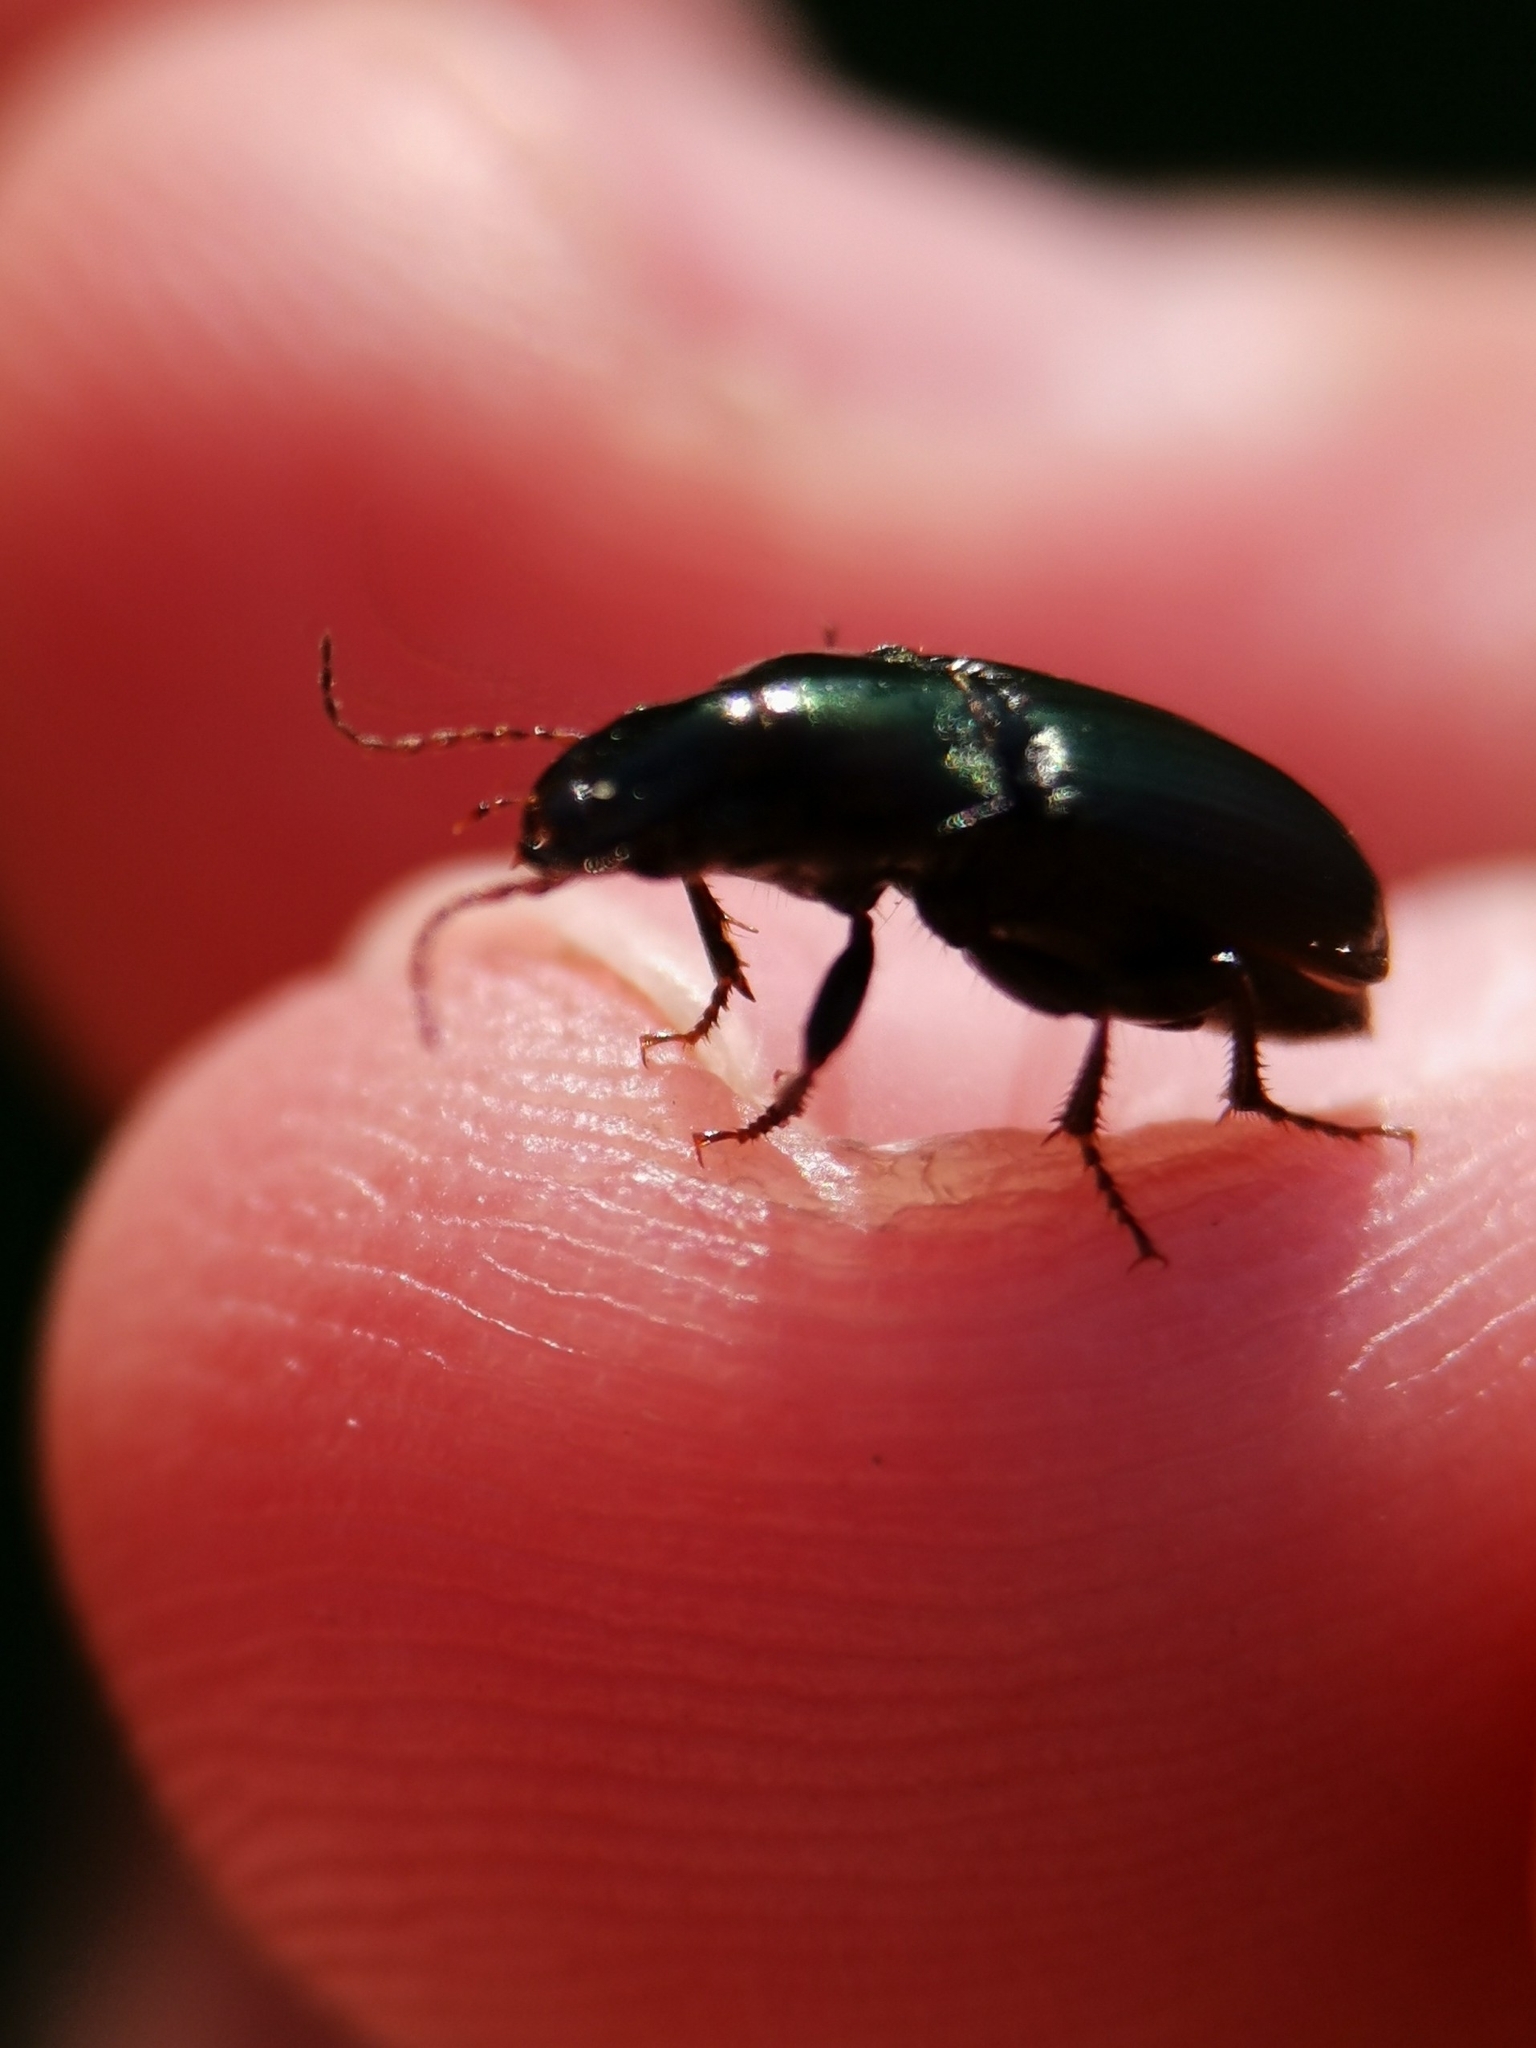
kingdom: Animalia
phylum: Arthropoda
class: Insecta
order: Coleoptera
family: Carabidae
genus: Harpalus
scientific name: Harpalus distinguendus
